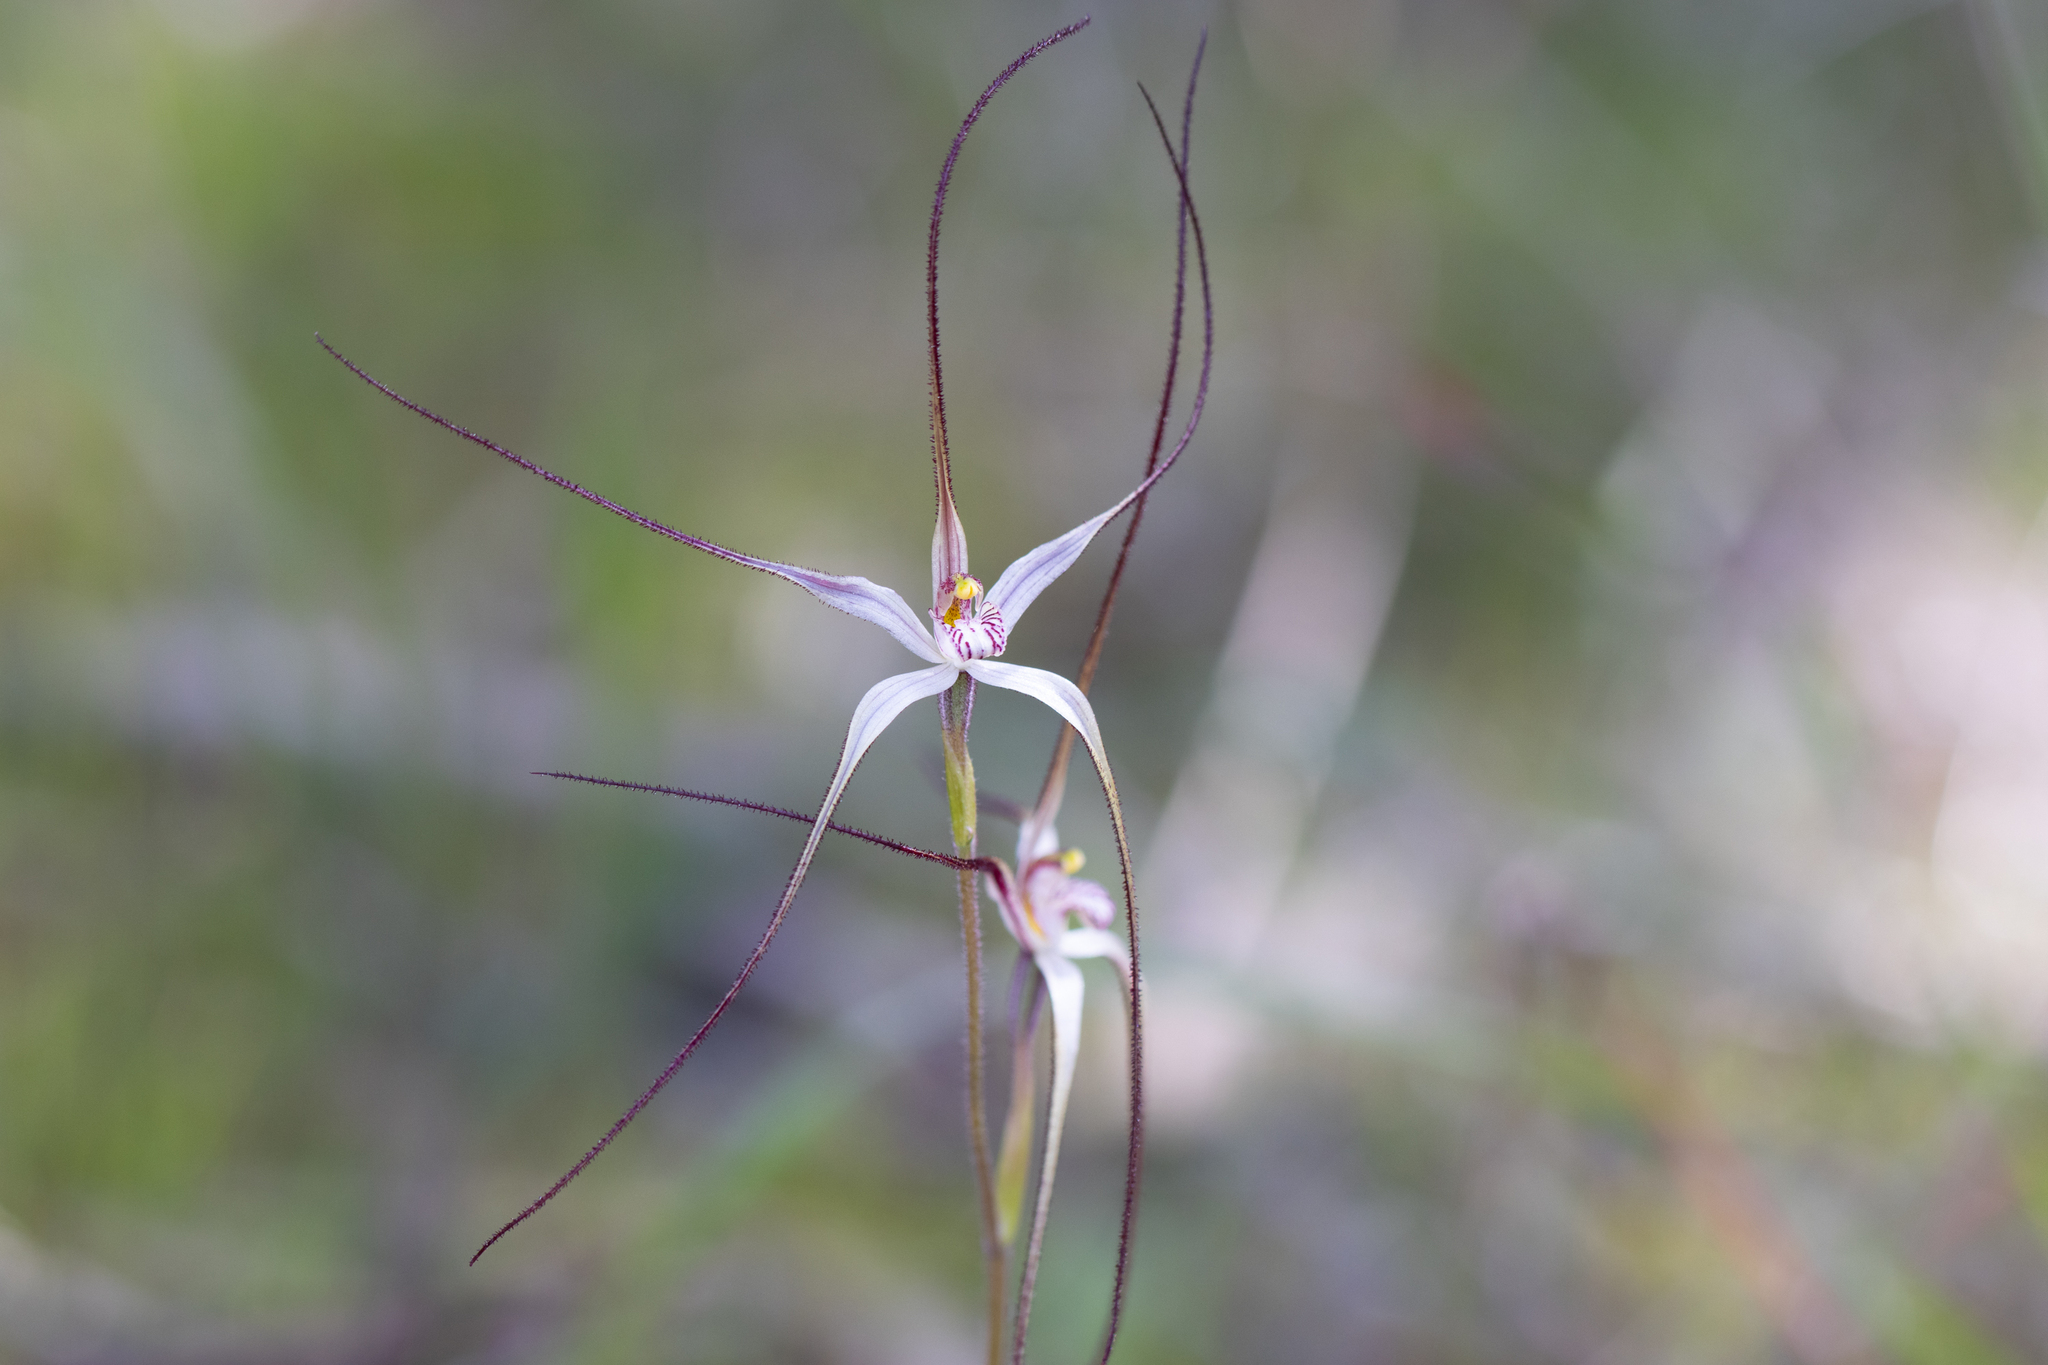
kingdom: Plantae
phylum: Tracheophyta
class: Liliopsida
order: Asparagales
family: Orchidaceae
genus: Caladenia
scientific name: Caladenia capillata
